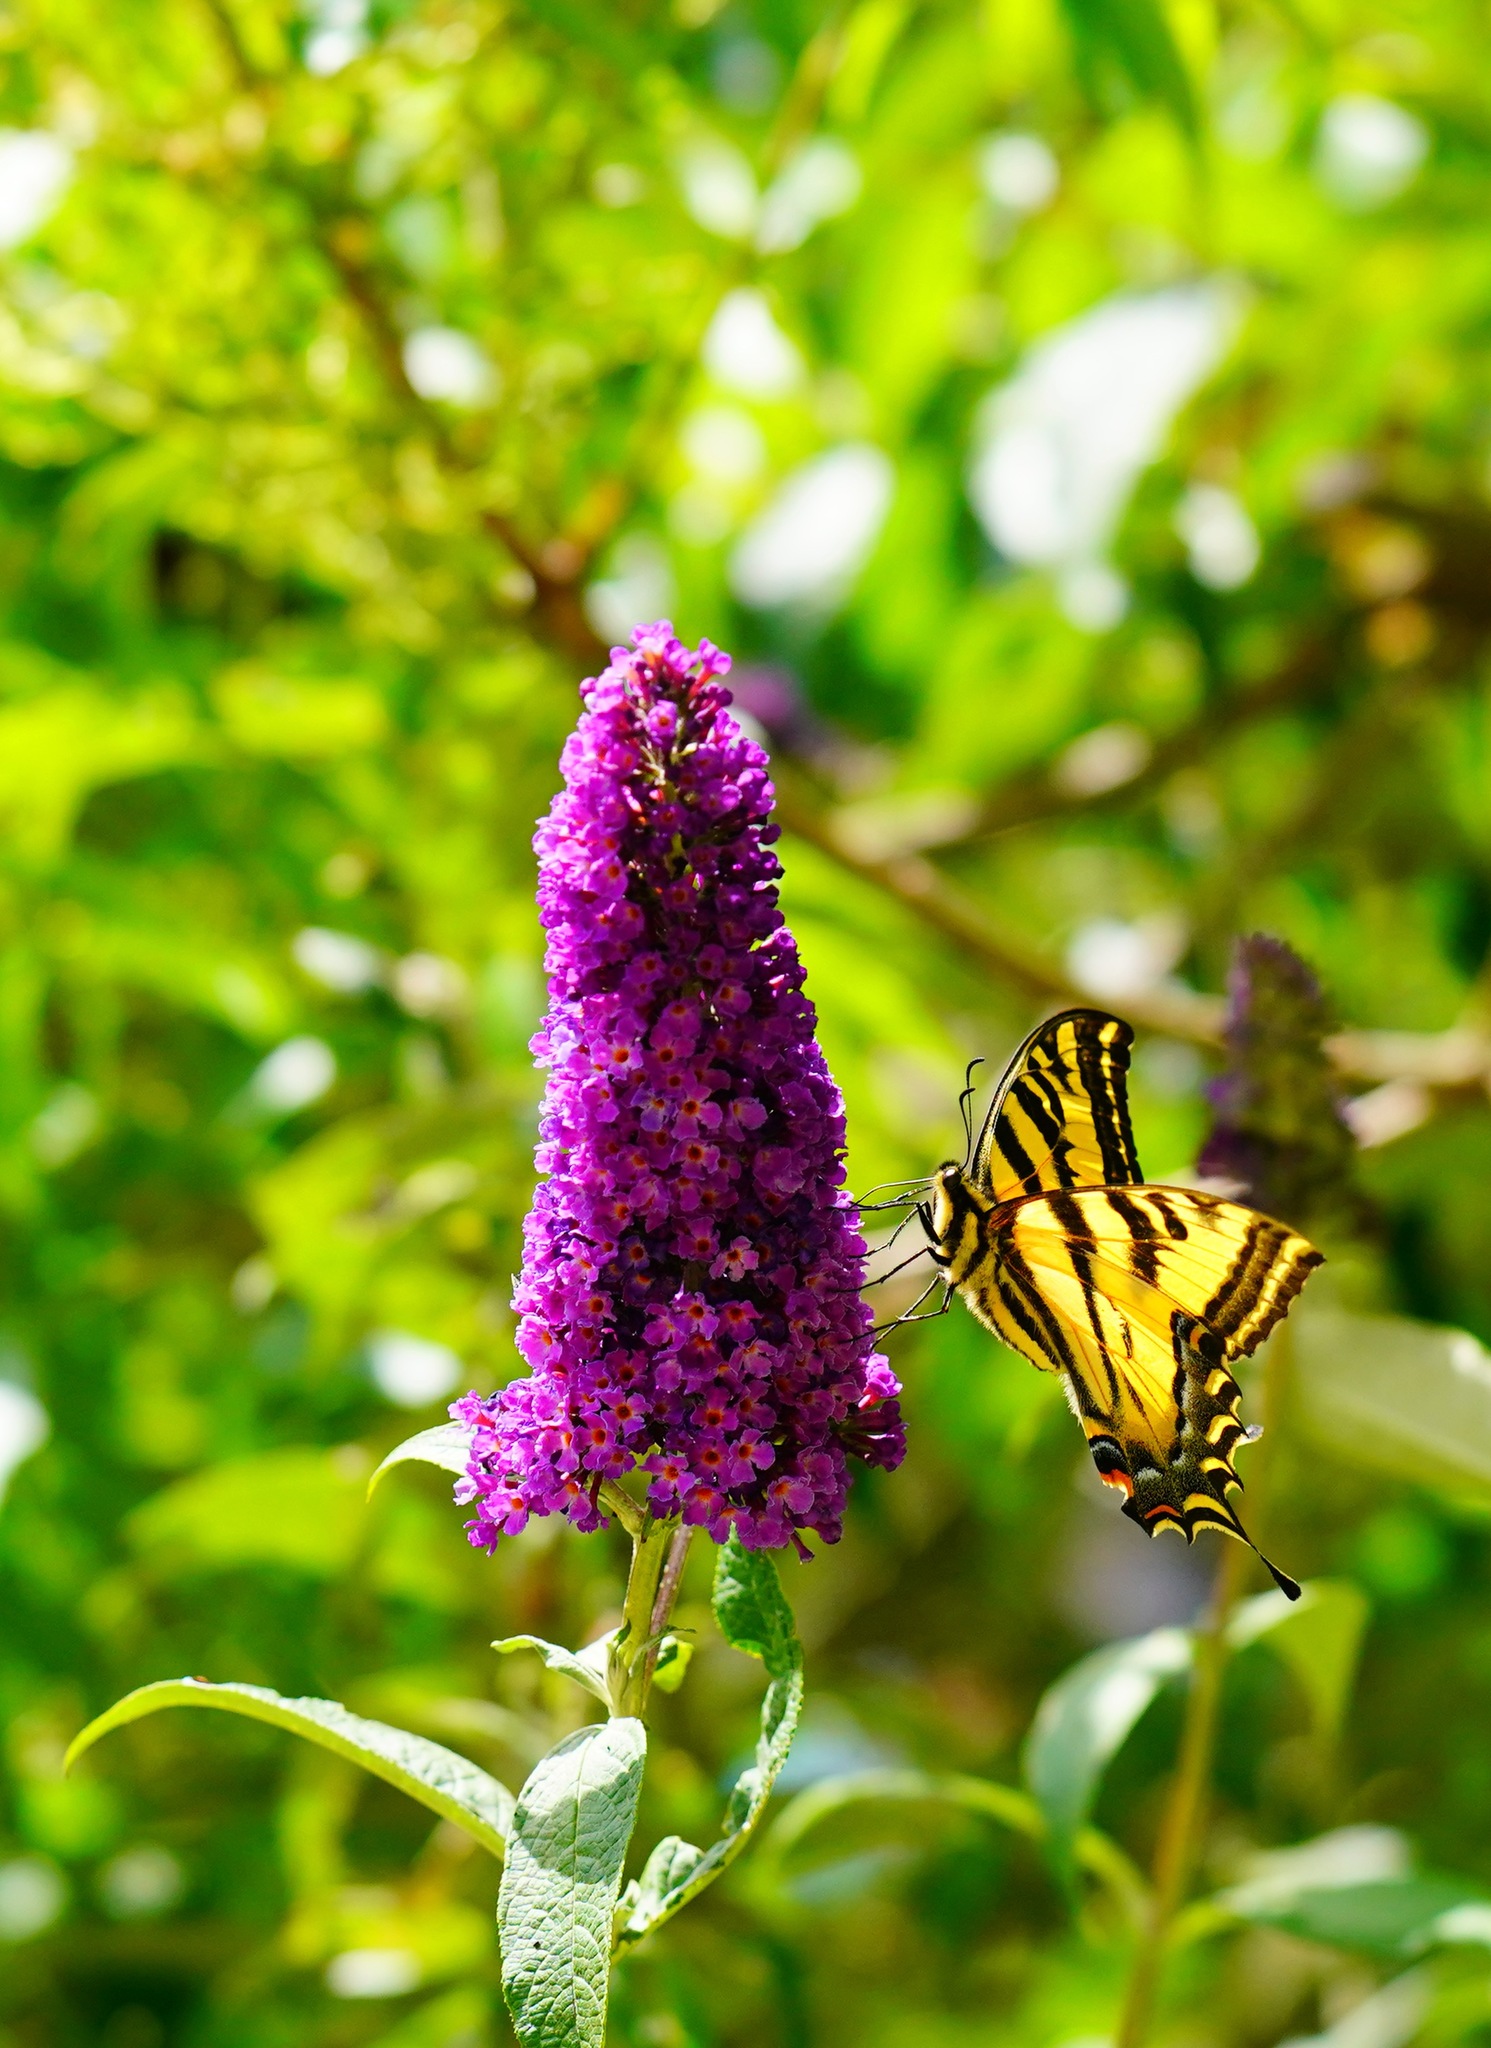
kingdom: Animalia
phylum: Arthropoda
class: Insecta
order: Lepidoptera
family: Papilionidae
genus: Papilio
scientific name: Papilio rutulus
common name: Western tiger swallowtail
